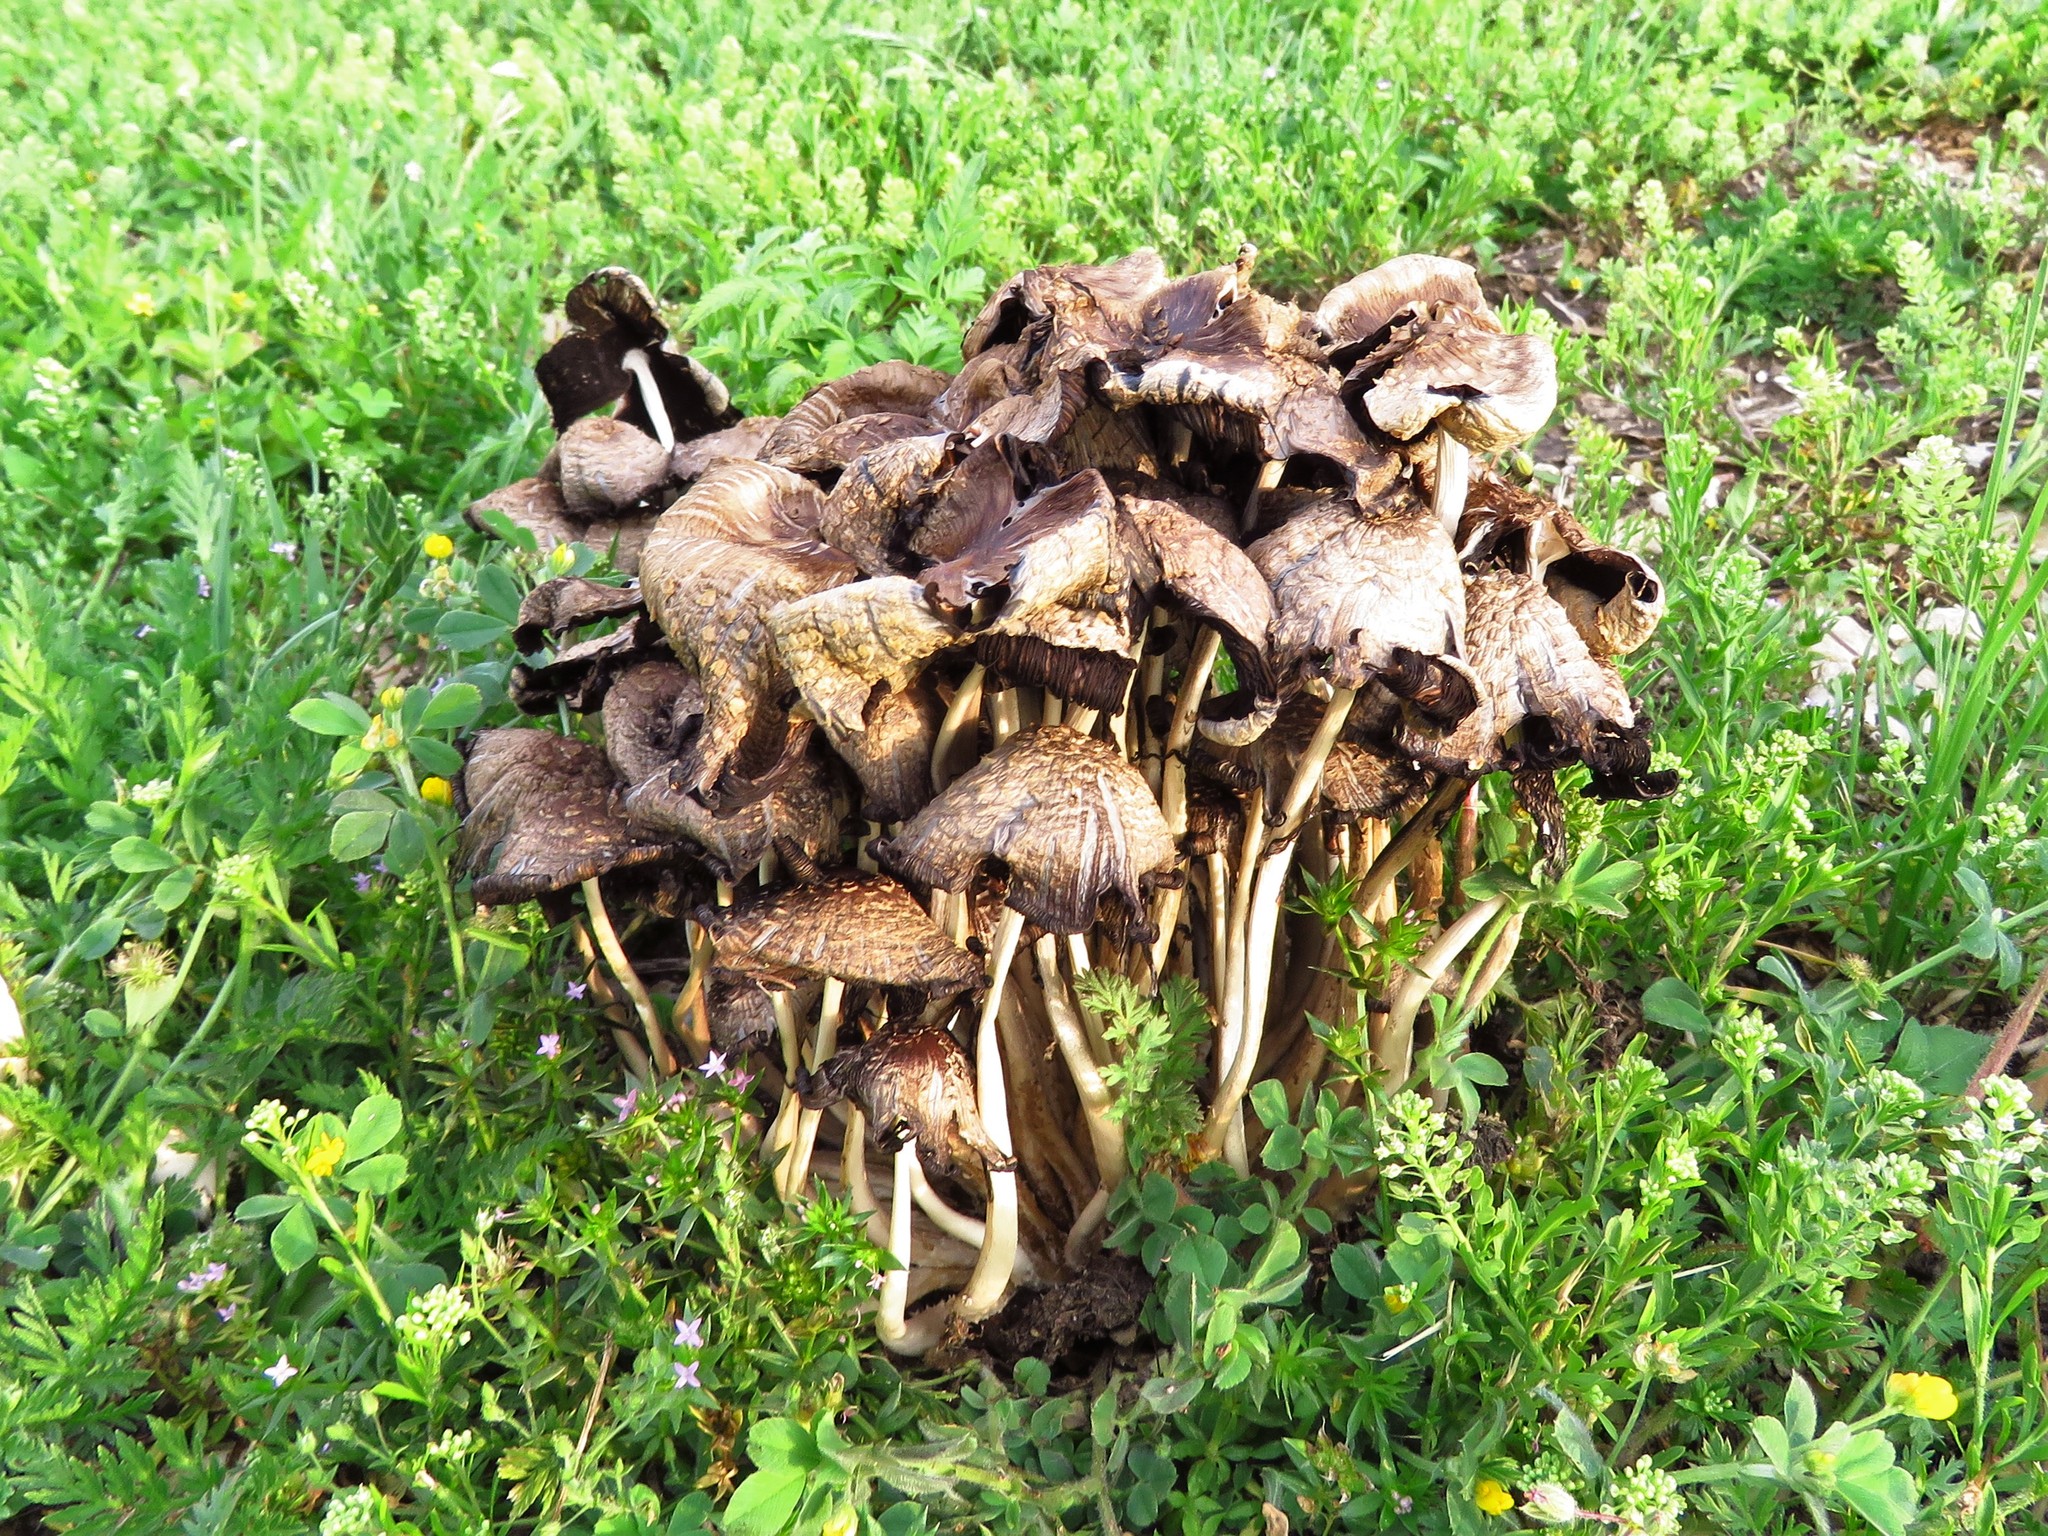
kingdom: Fungi
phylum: Basidiomycota
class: Agaricomycetes
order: Agaricales
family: Psathyrellaceae
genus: Coprinopsis
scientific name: Coprinopsis variegata
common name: Scaly ink cap
